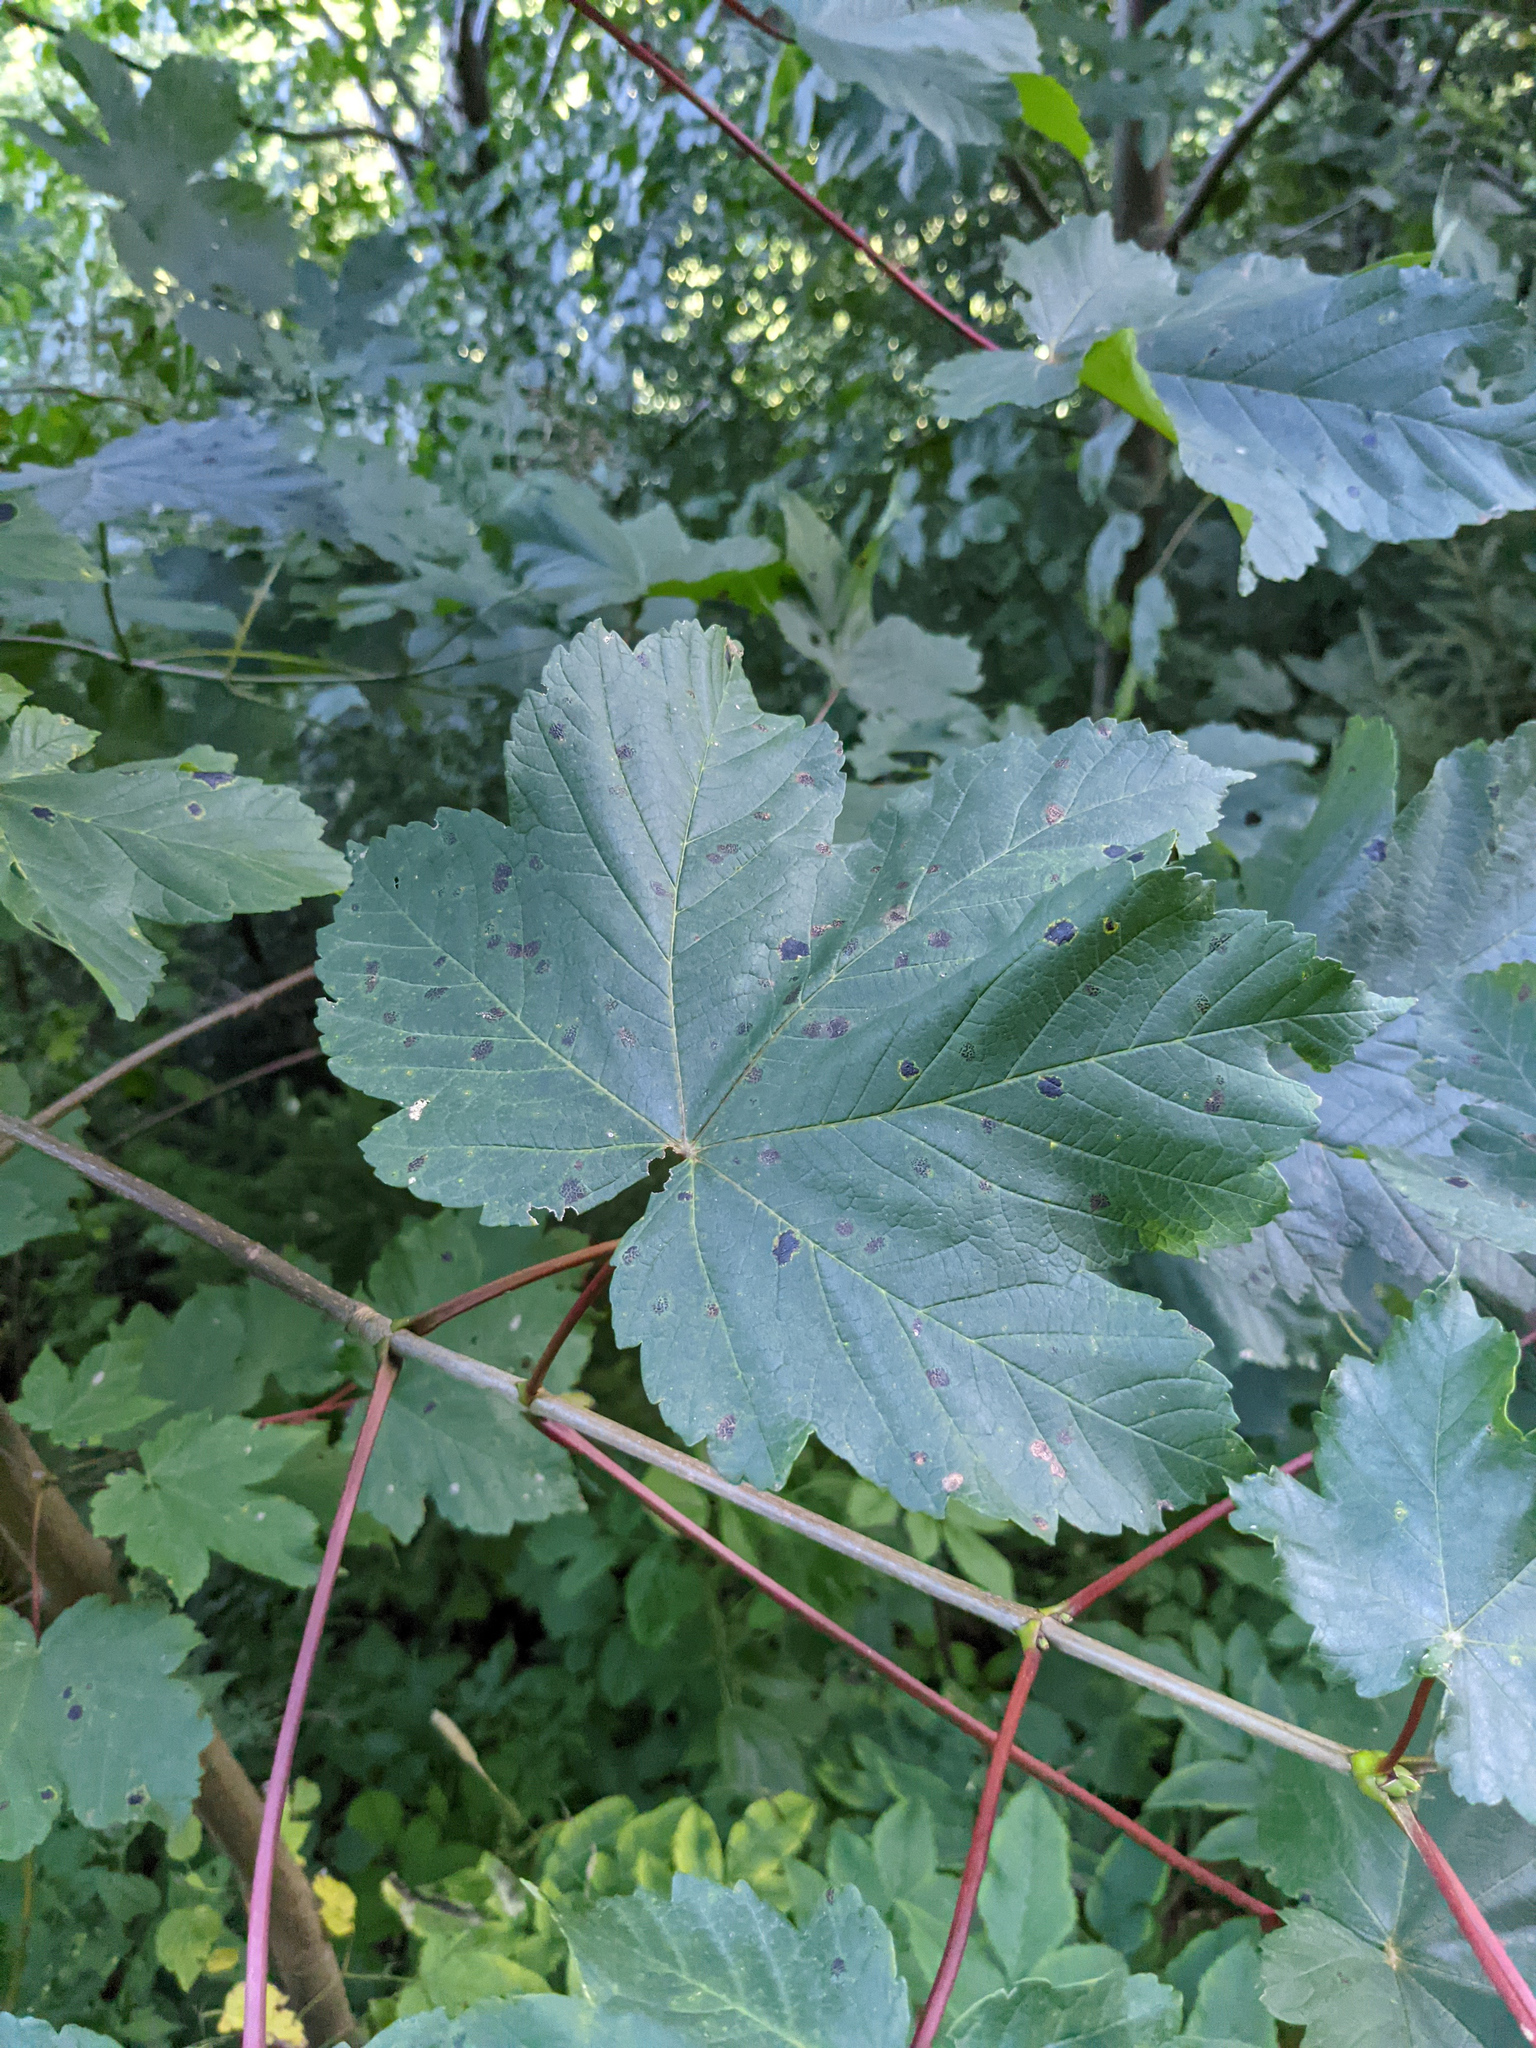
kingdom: Plantae
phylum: Tracheophyta
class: Magnoliopsida
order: Sapindales
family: Sapindaceae
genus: Acer
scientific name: Acer pseudoplatanus
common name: Sycamore
